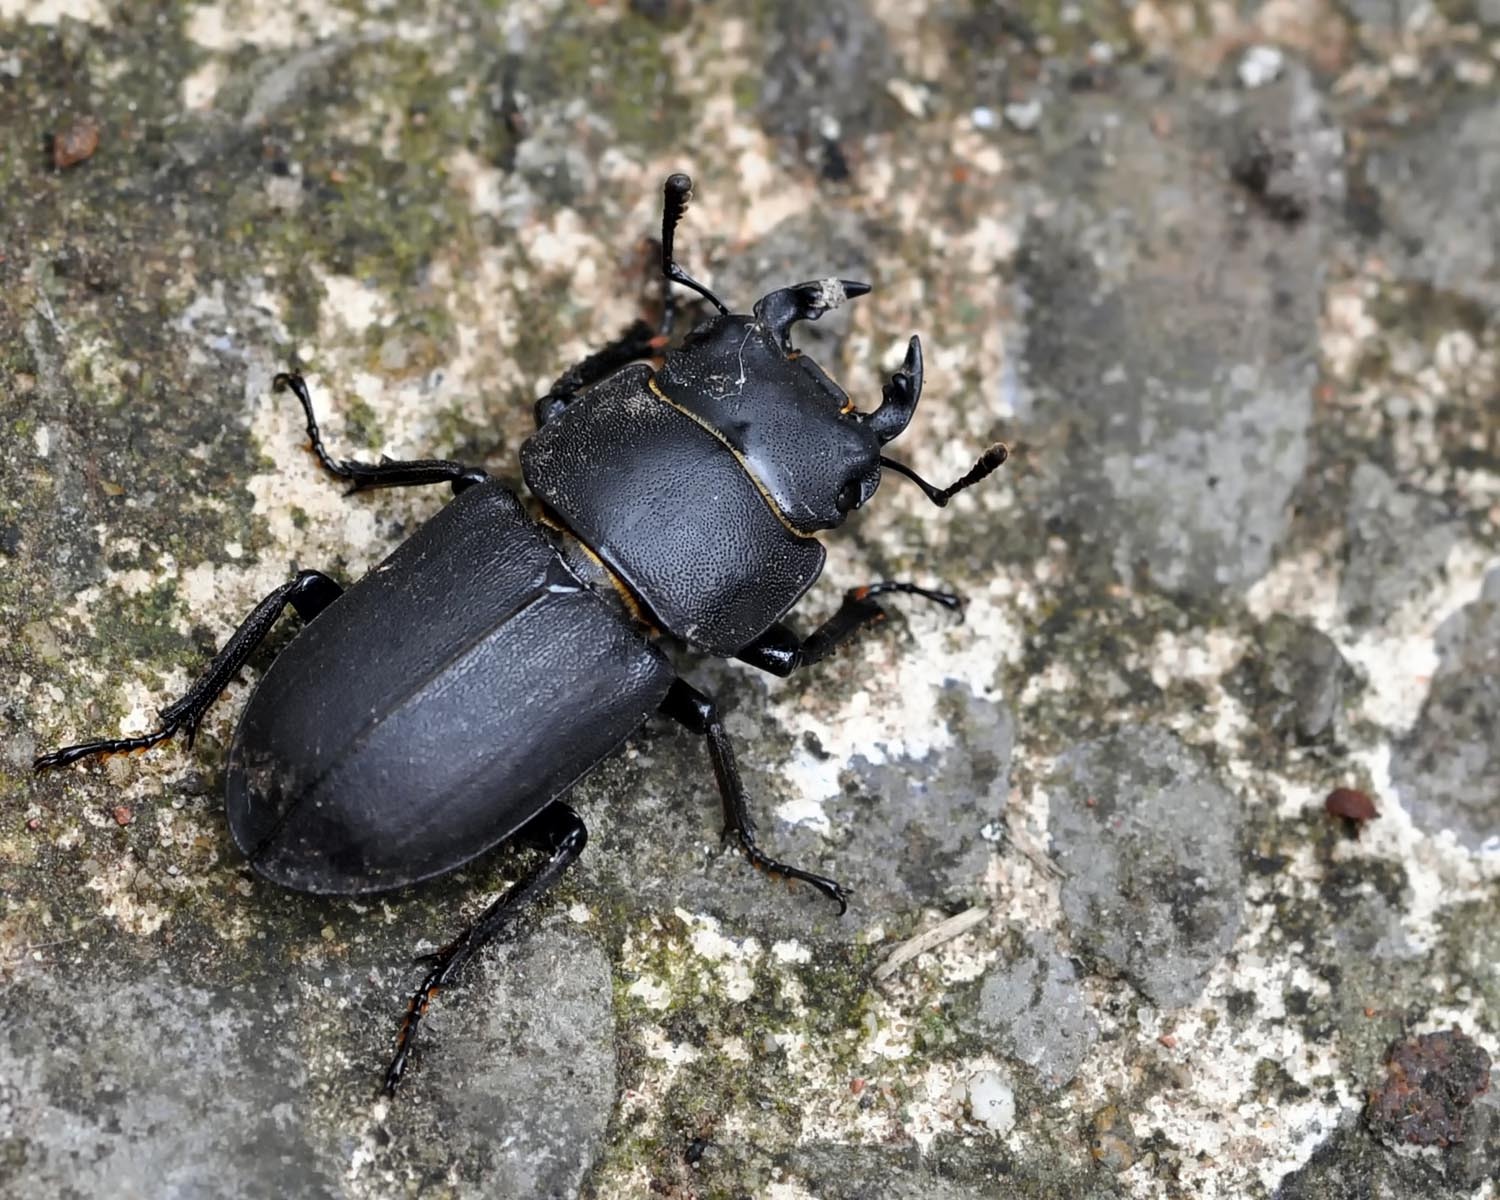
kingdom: Animalia
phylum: Arthropoda
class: Insecta
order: Coleoptera
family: Lucanidae
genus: Dorcus
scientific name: Dorcus parallelipipedus
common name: Lesser stag beetle
